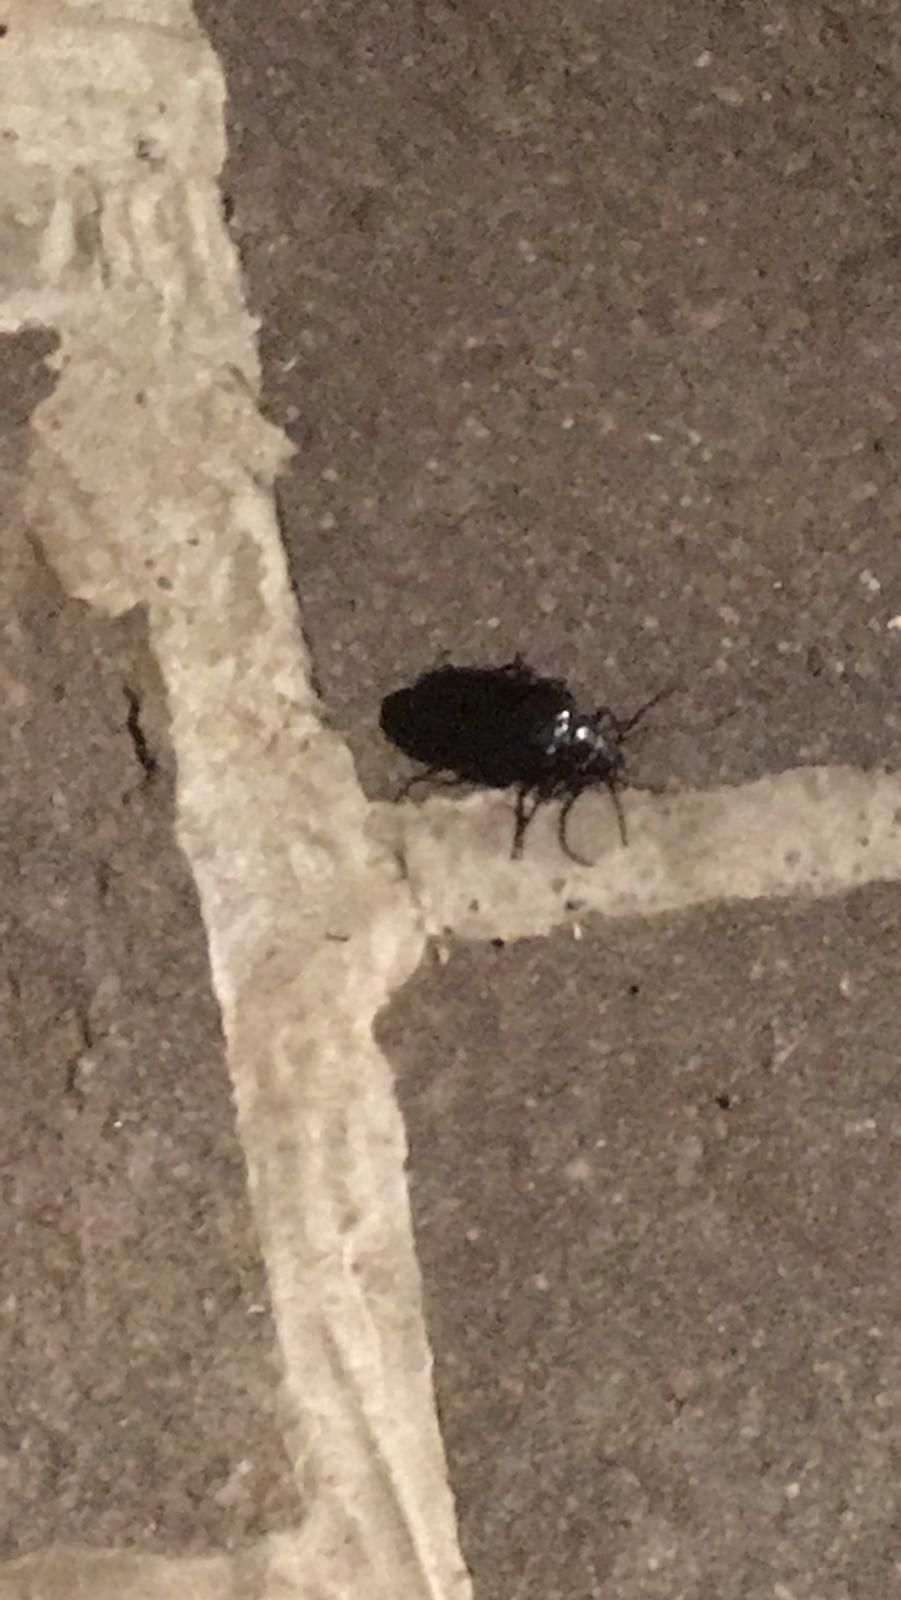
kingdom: Animalia
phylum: Arthropoda
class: Insecta
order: Coleoptera
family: Cerambycidae
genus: Prionus
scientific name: Prionus coriarius
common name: Tanner beetle
